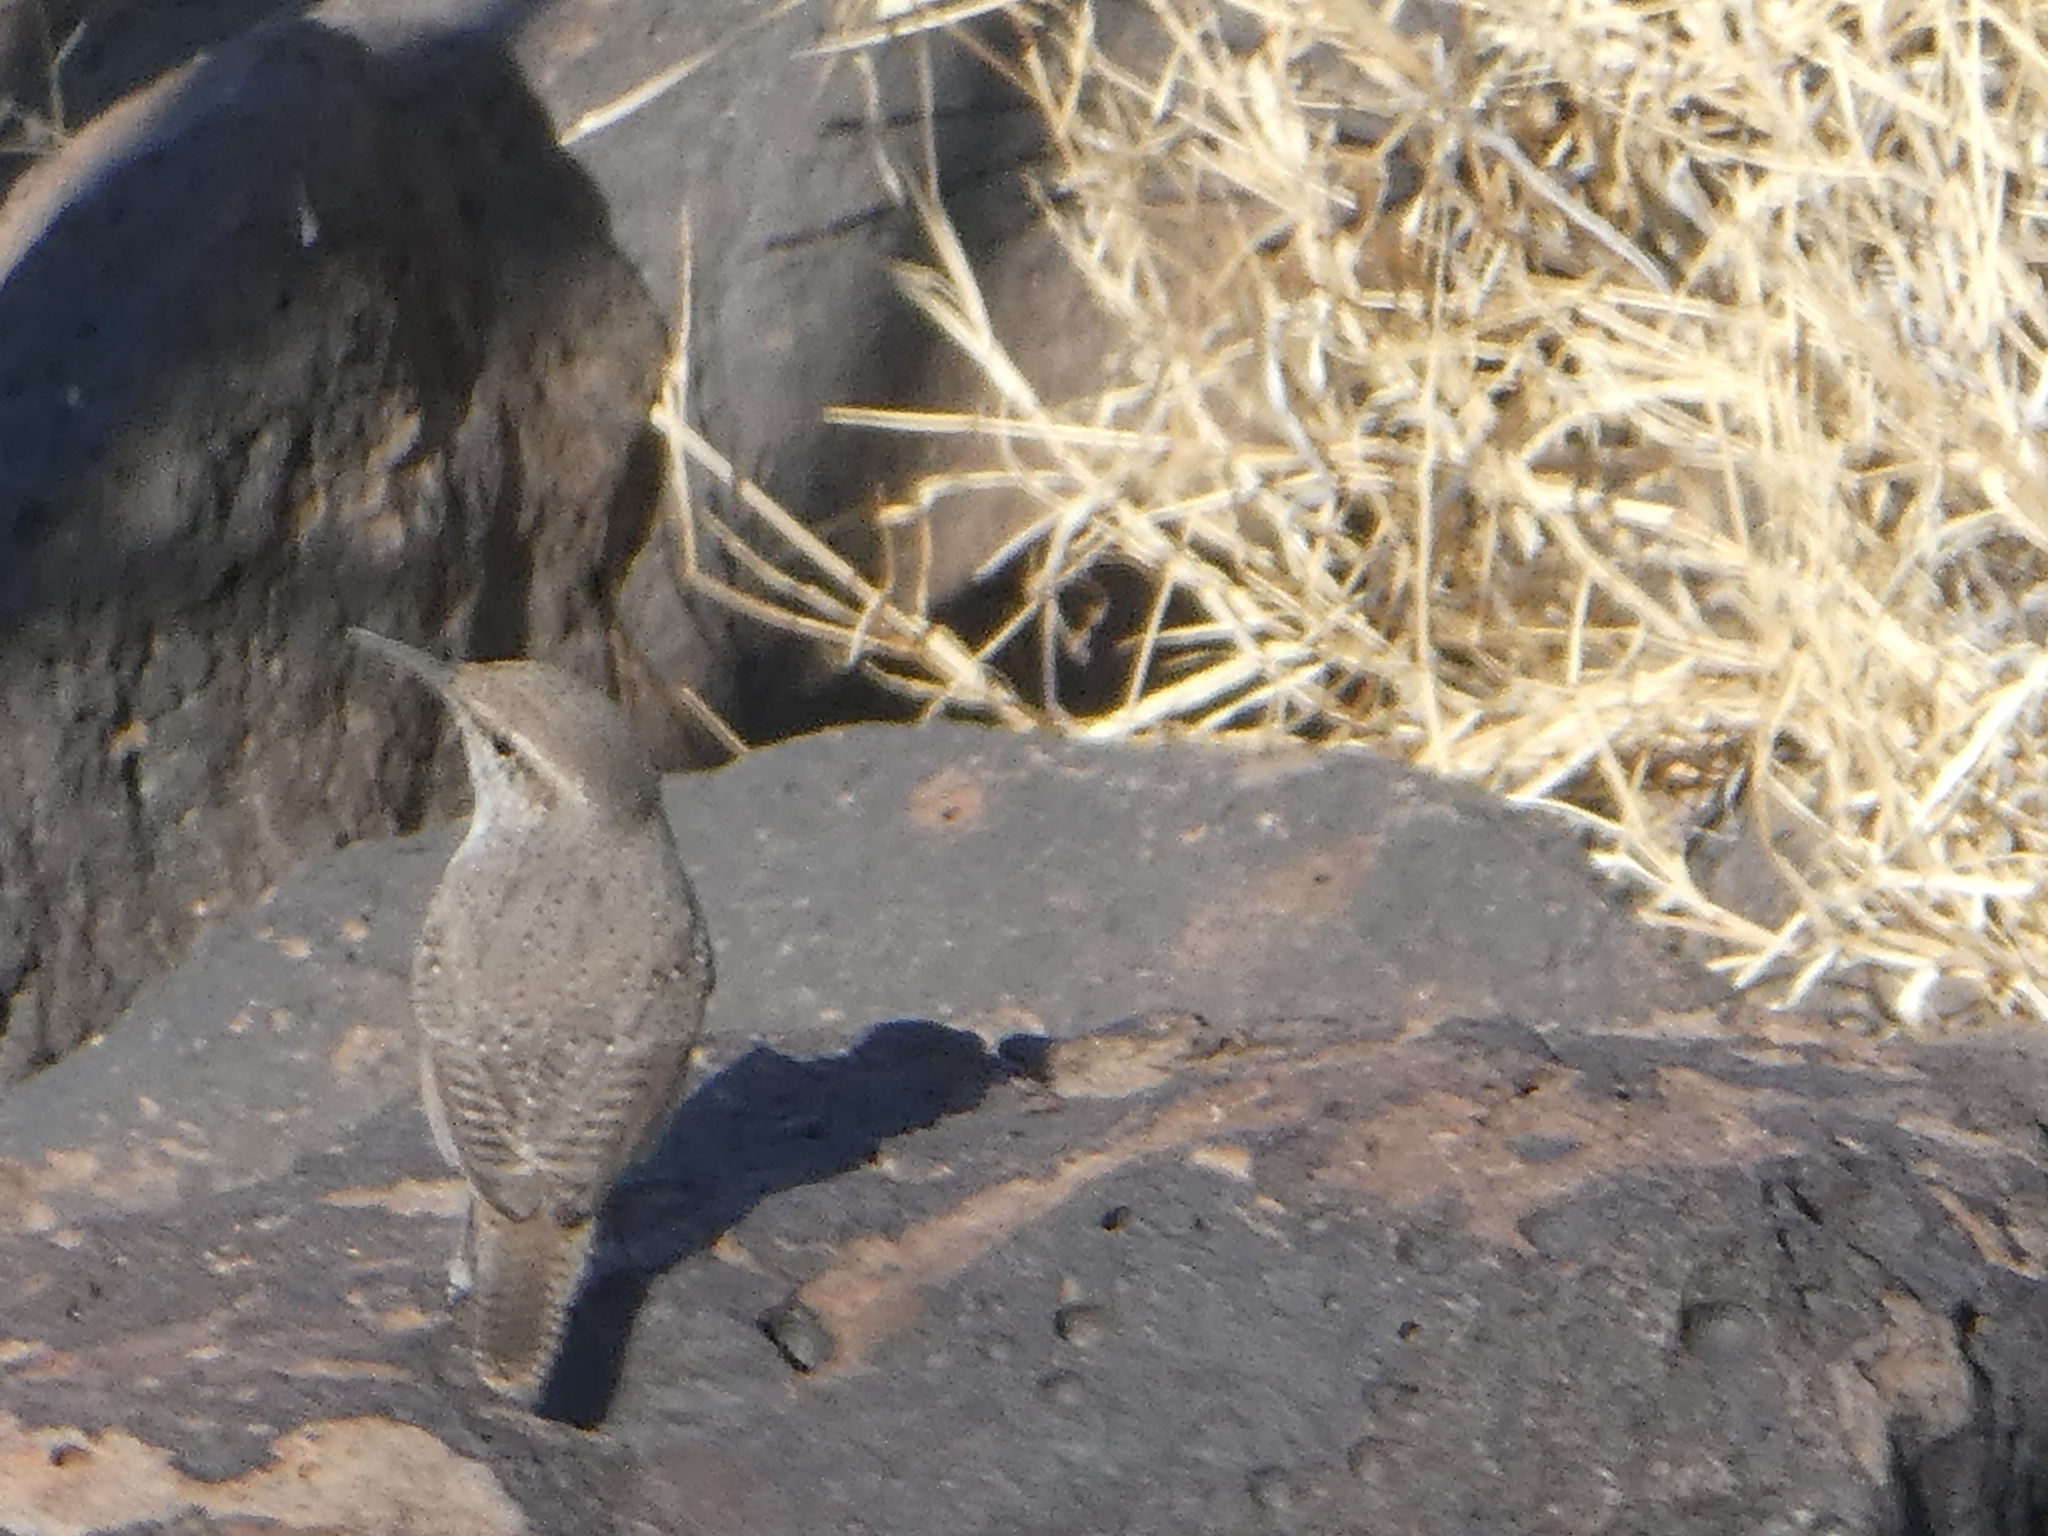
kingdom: Animalia
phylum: Chordata
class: Aves
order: Passeriformes
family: Troglodytidae
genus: Salpinctes
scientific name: Salpinctes obsoletus
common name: Rock wren
